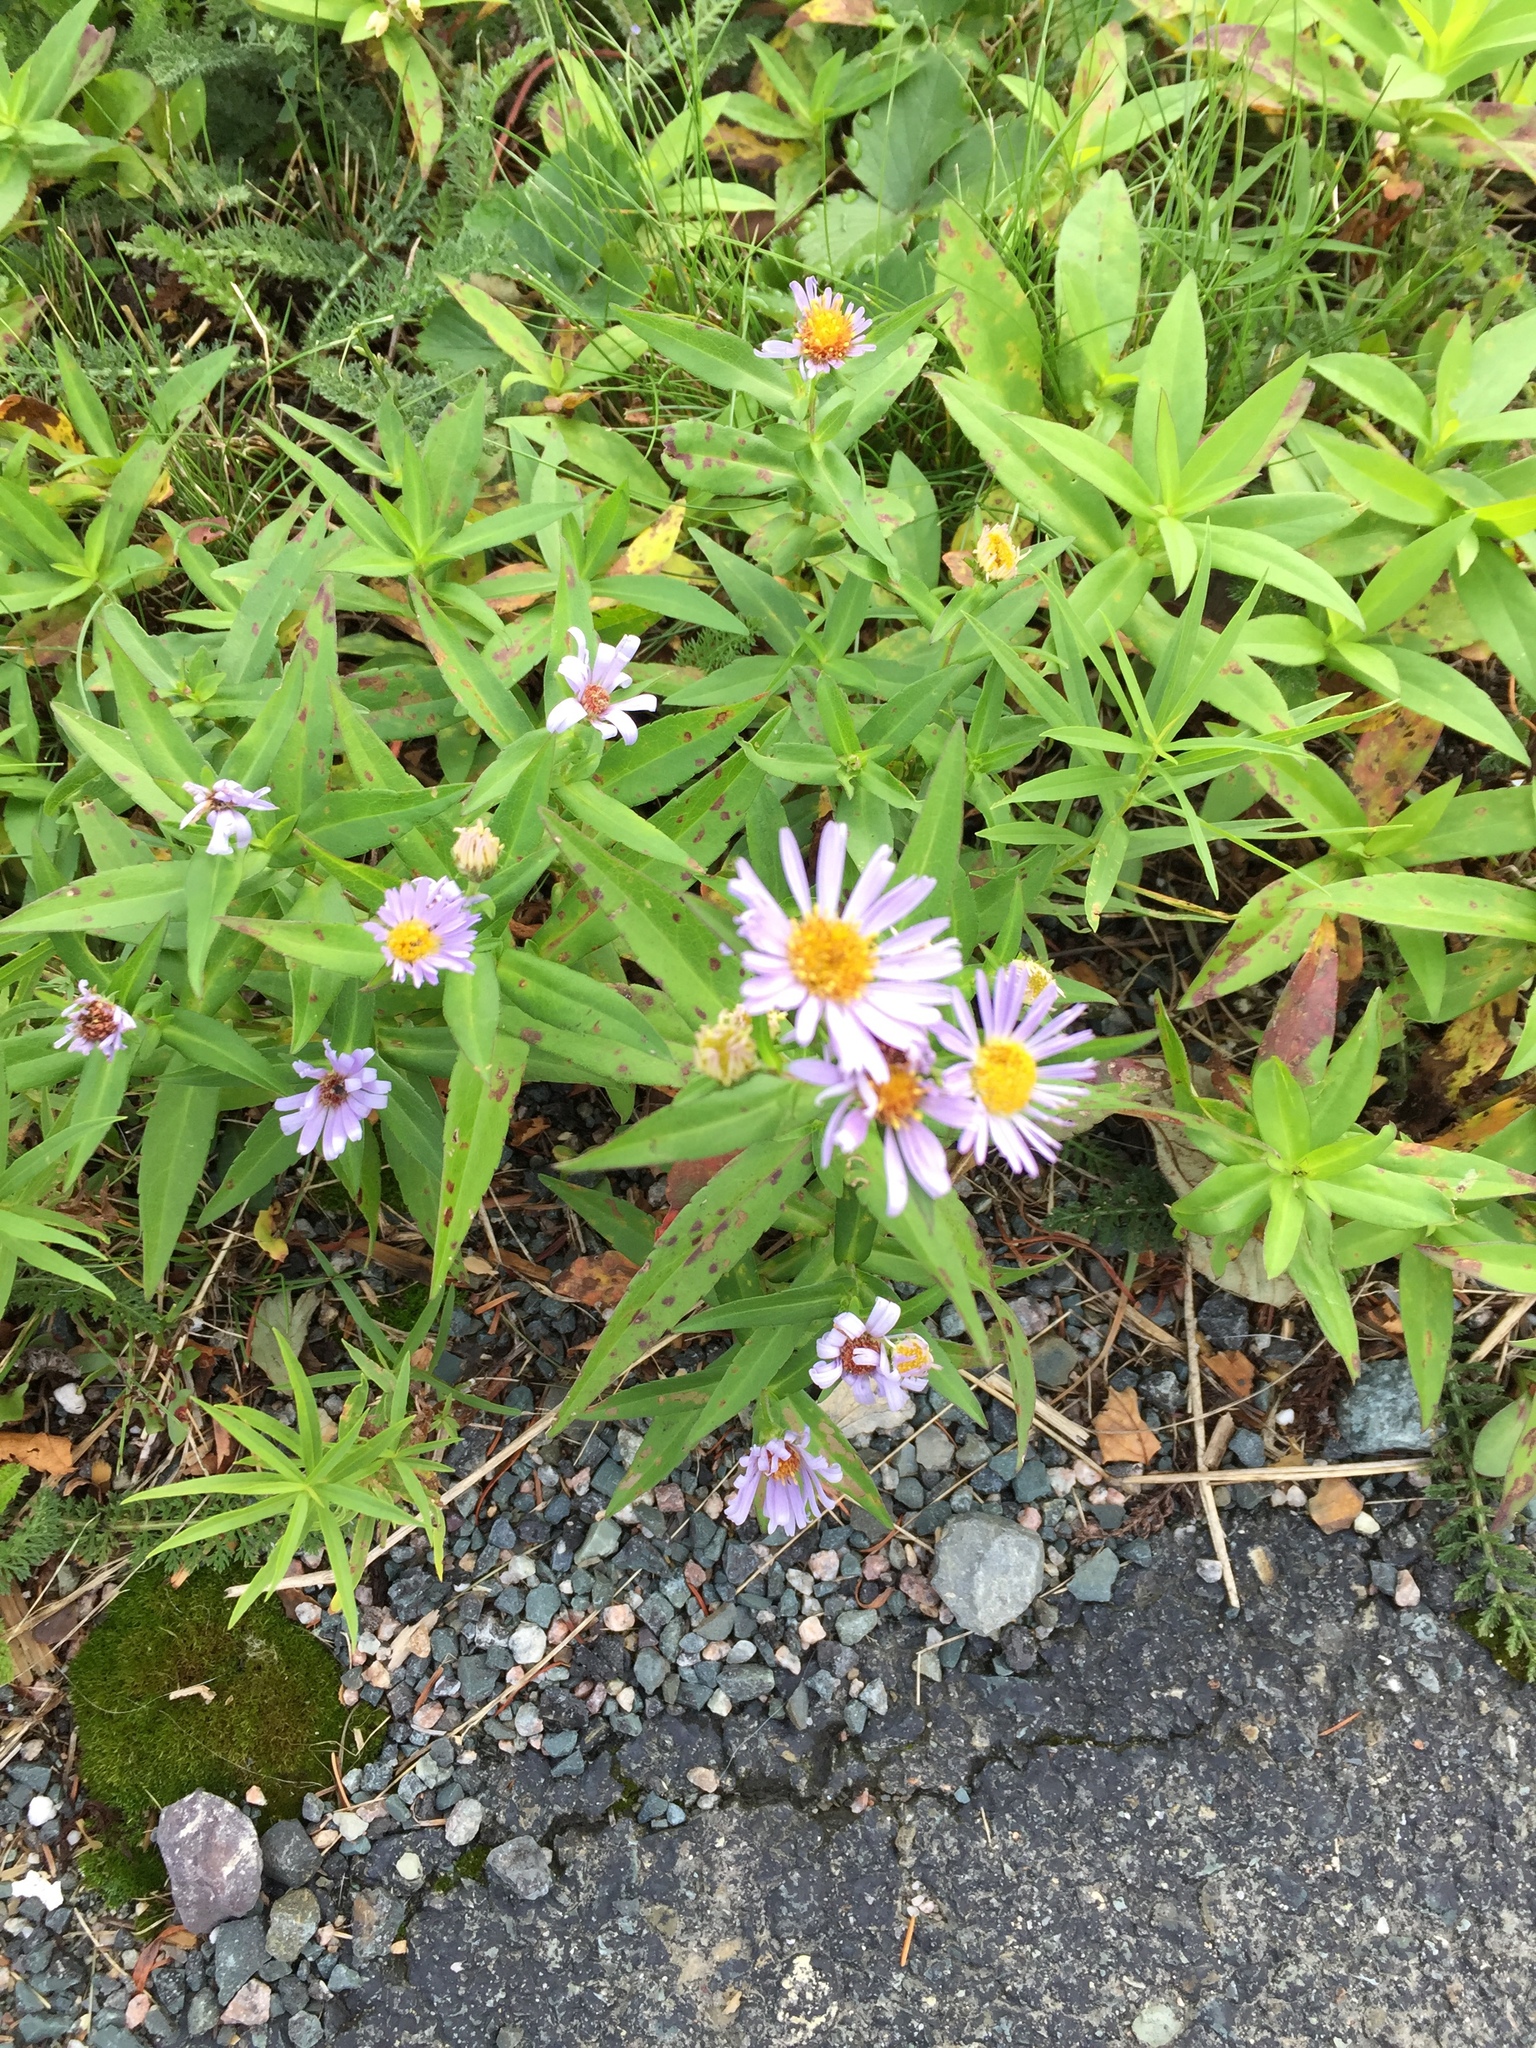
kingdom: Plantae
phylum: Tracheophyta
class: Magnoliopsida
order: Asterales
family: Asteraceae
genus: Symphyotrichum
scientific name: Symphyotrichum novi-belgii
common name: Michaelmas daisy
